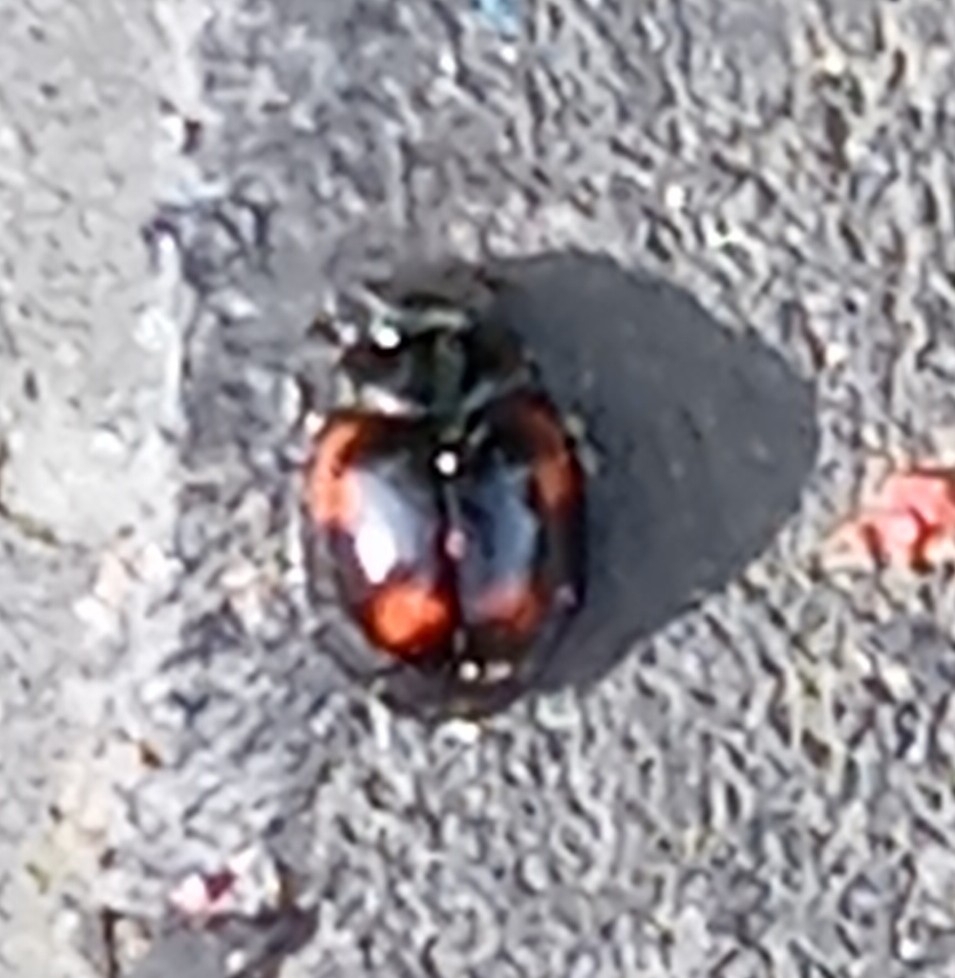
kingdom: Animalia
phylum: Arthropoda
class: Insecta
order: Coleoptera
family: Coccinellidae
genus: Brumus
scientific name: Brumus quadripustulatus
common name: Ladybird beetle
